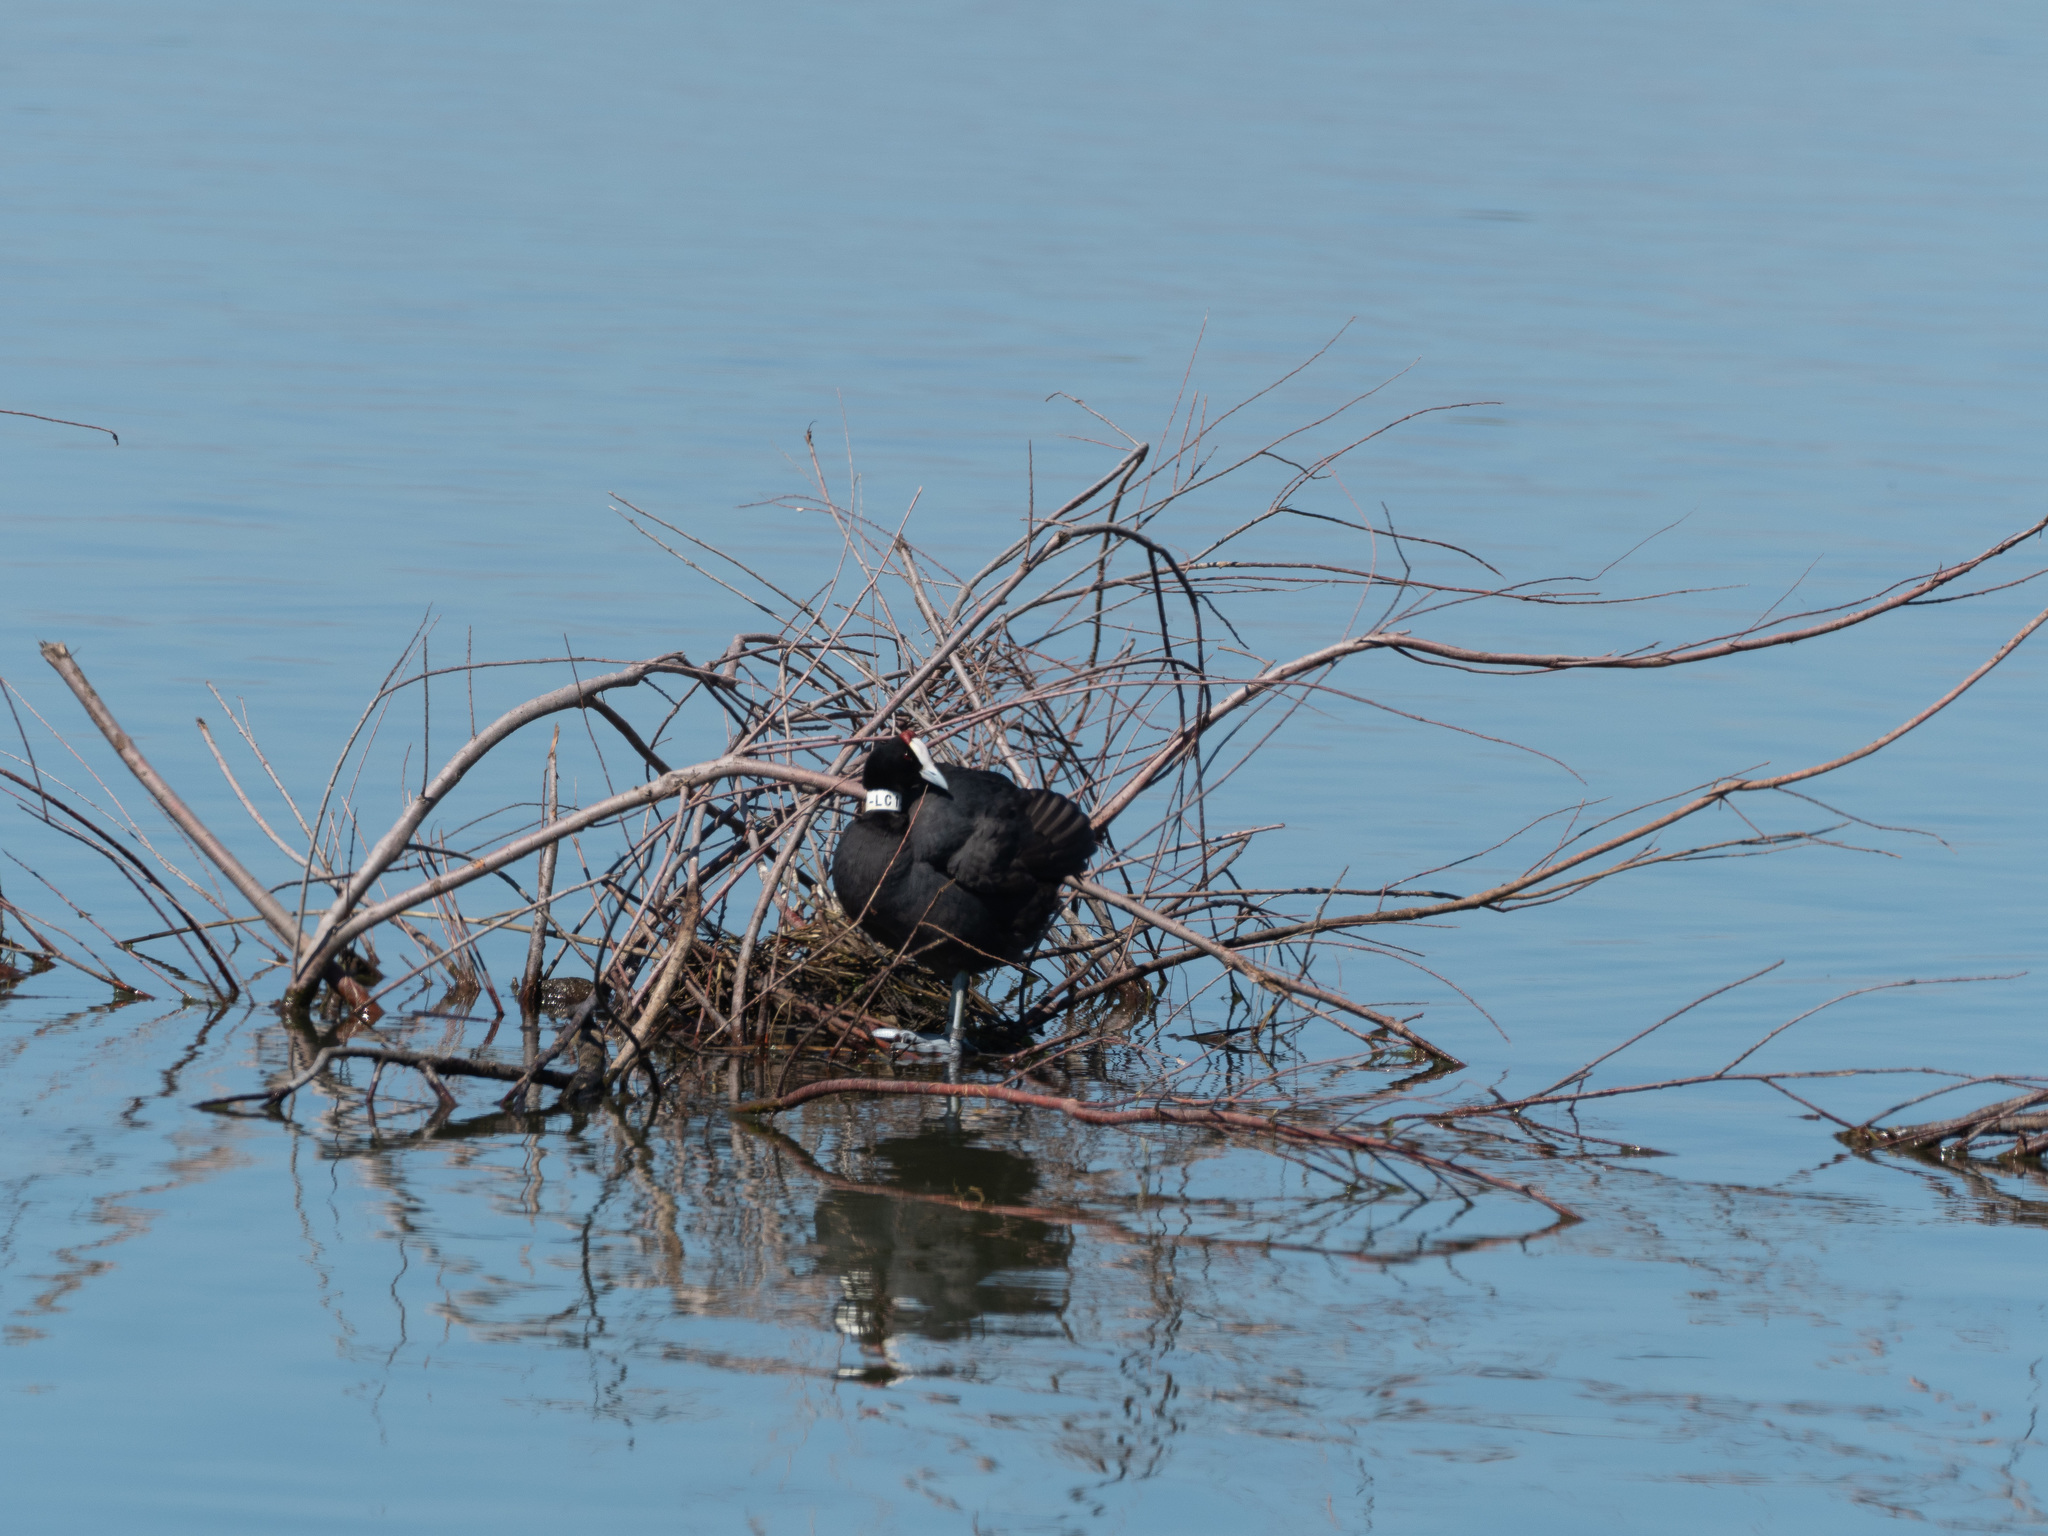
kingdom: Animalia
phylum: Chordata
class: Aves
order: Gruiformes
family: Rallidae
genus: Fulica
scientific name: Fulica cristata
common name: Red-knobbed coot
